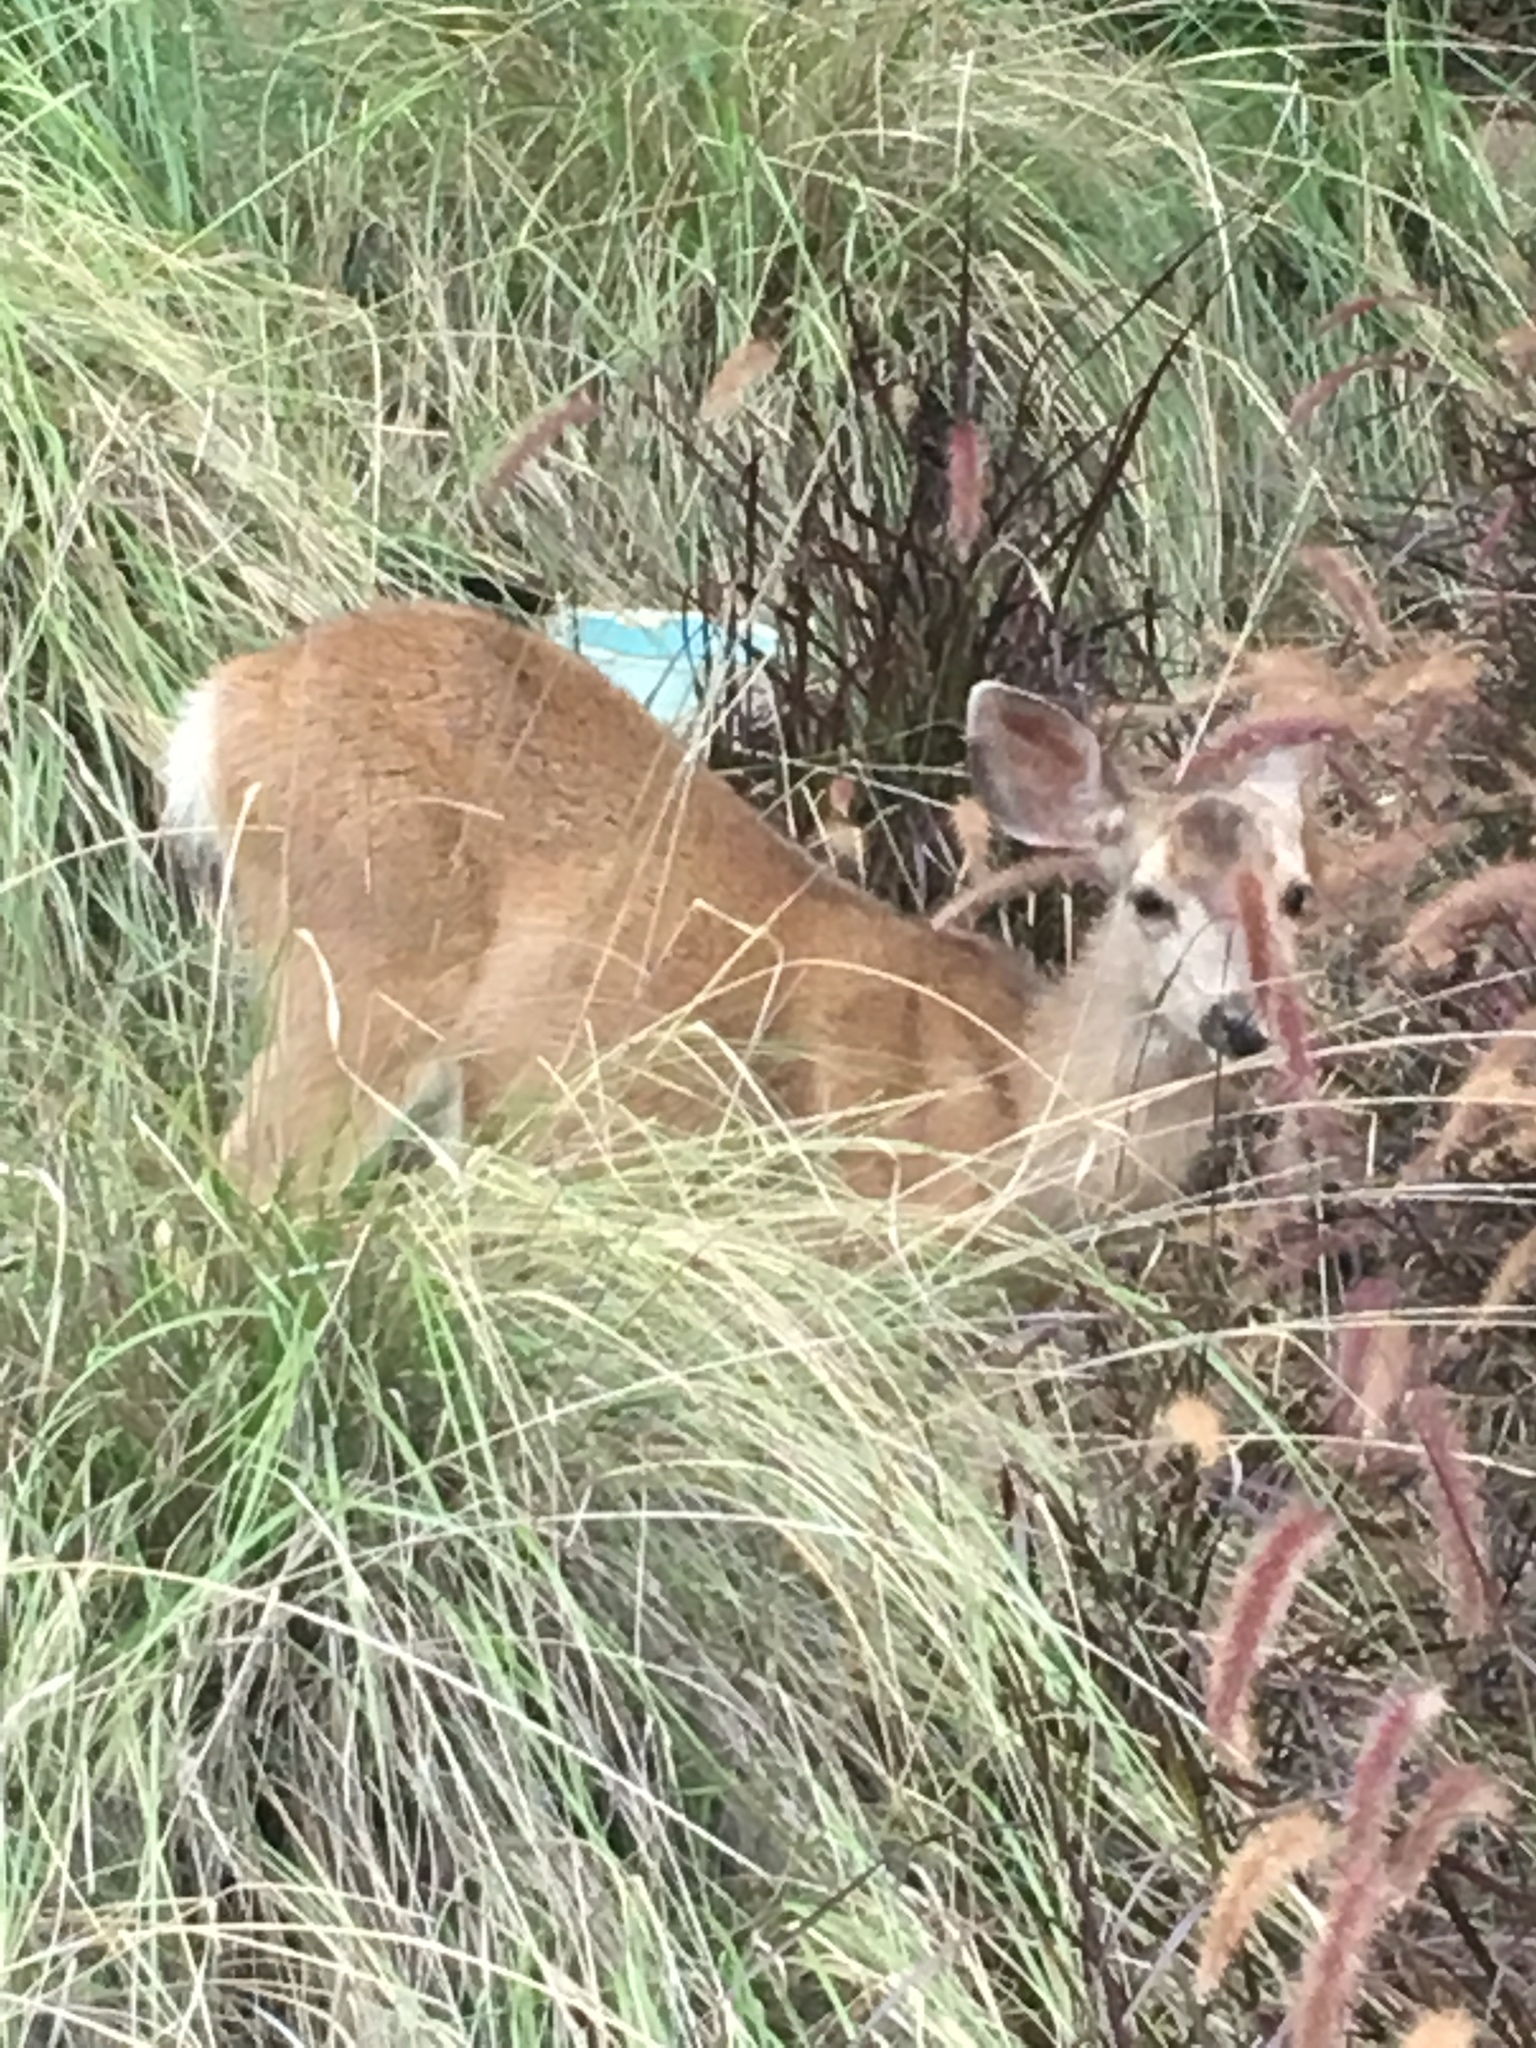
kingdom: Animalia
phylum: Chordata
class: Mammalia
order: Artiodactyla
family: Cervidae
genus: Odocoileus
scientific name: Odocoileus hemionus
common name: Mule deer
